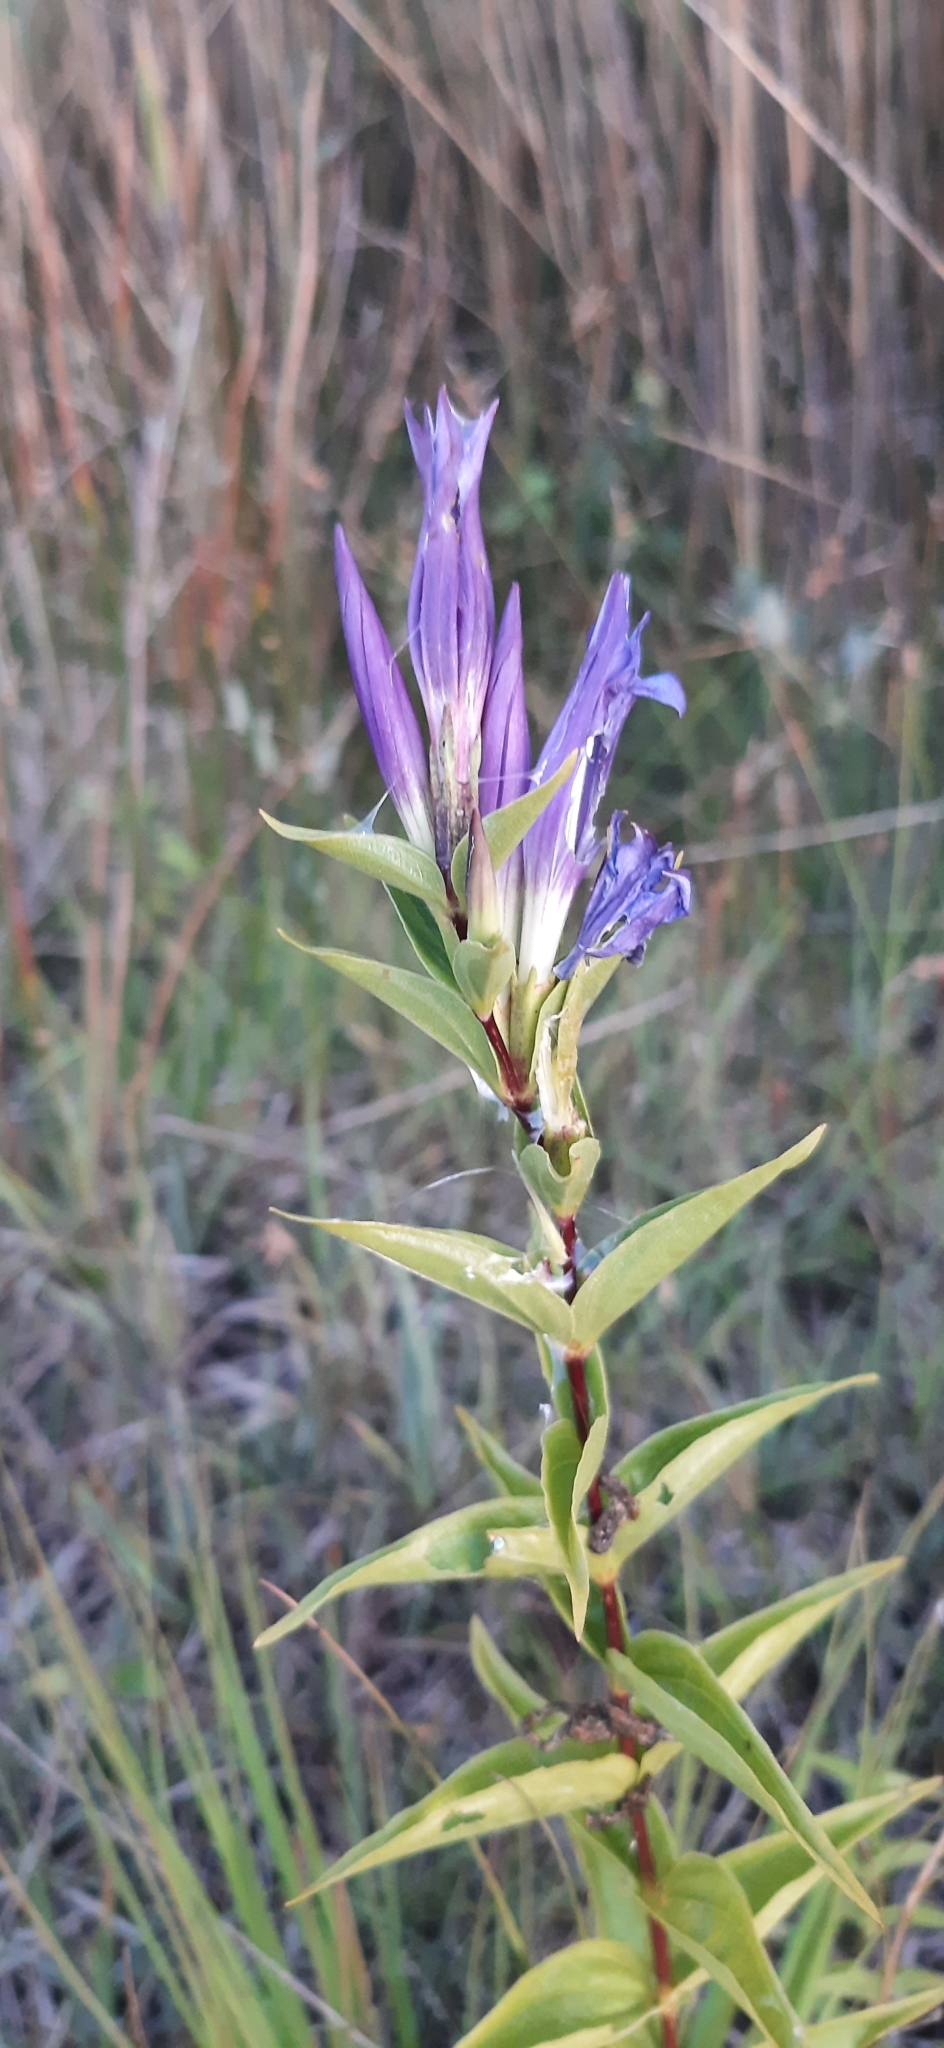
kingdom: Plantae
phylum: Tracheophyta
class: Magnoliopsida
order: Gentianales
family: Gentianaceae
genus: Gentiana
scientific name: Gentiana asclepiadea
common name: Willow gentian
